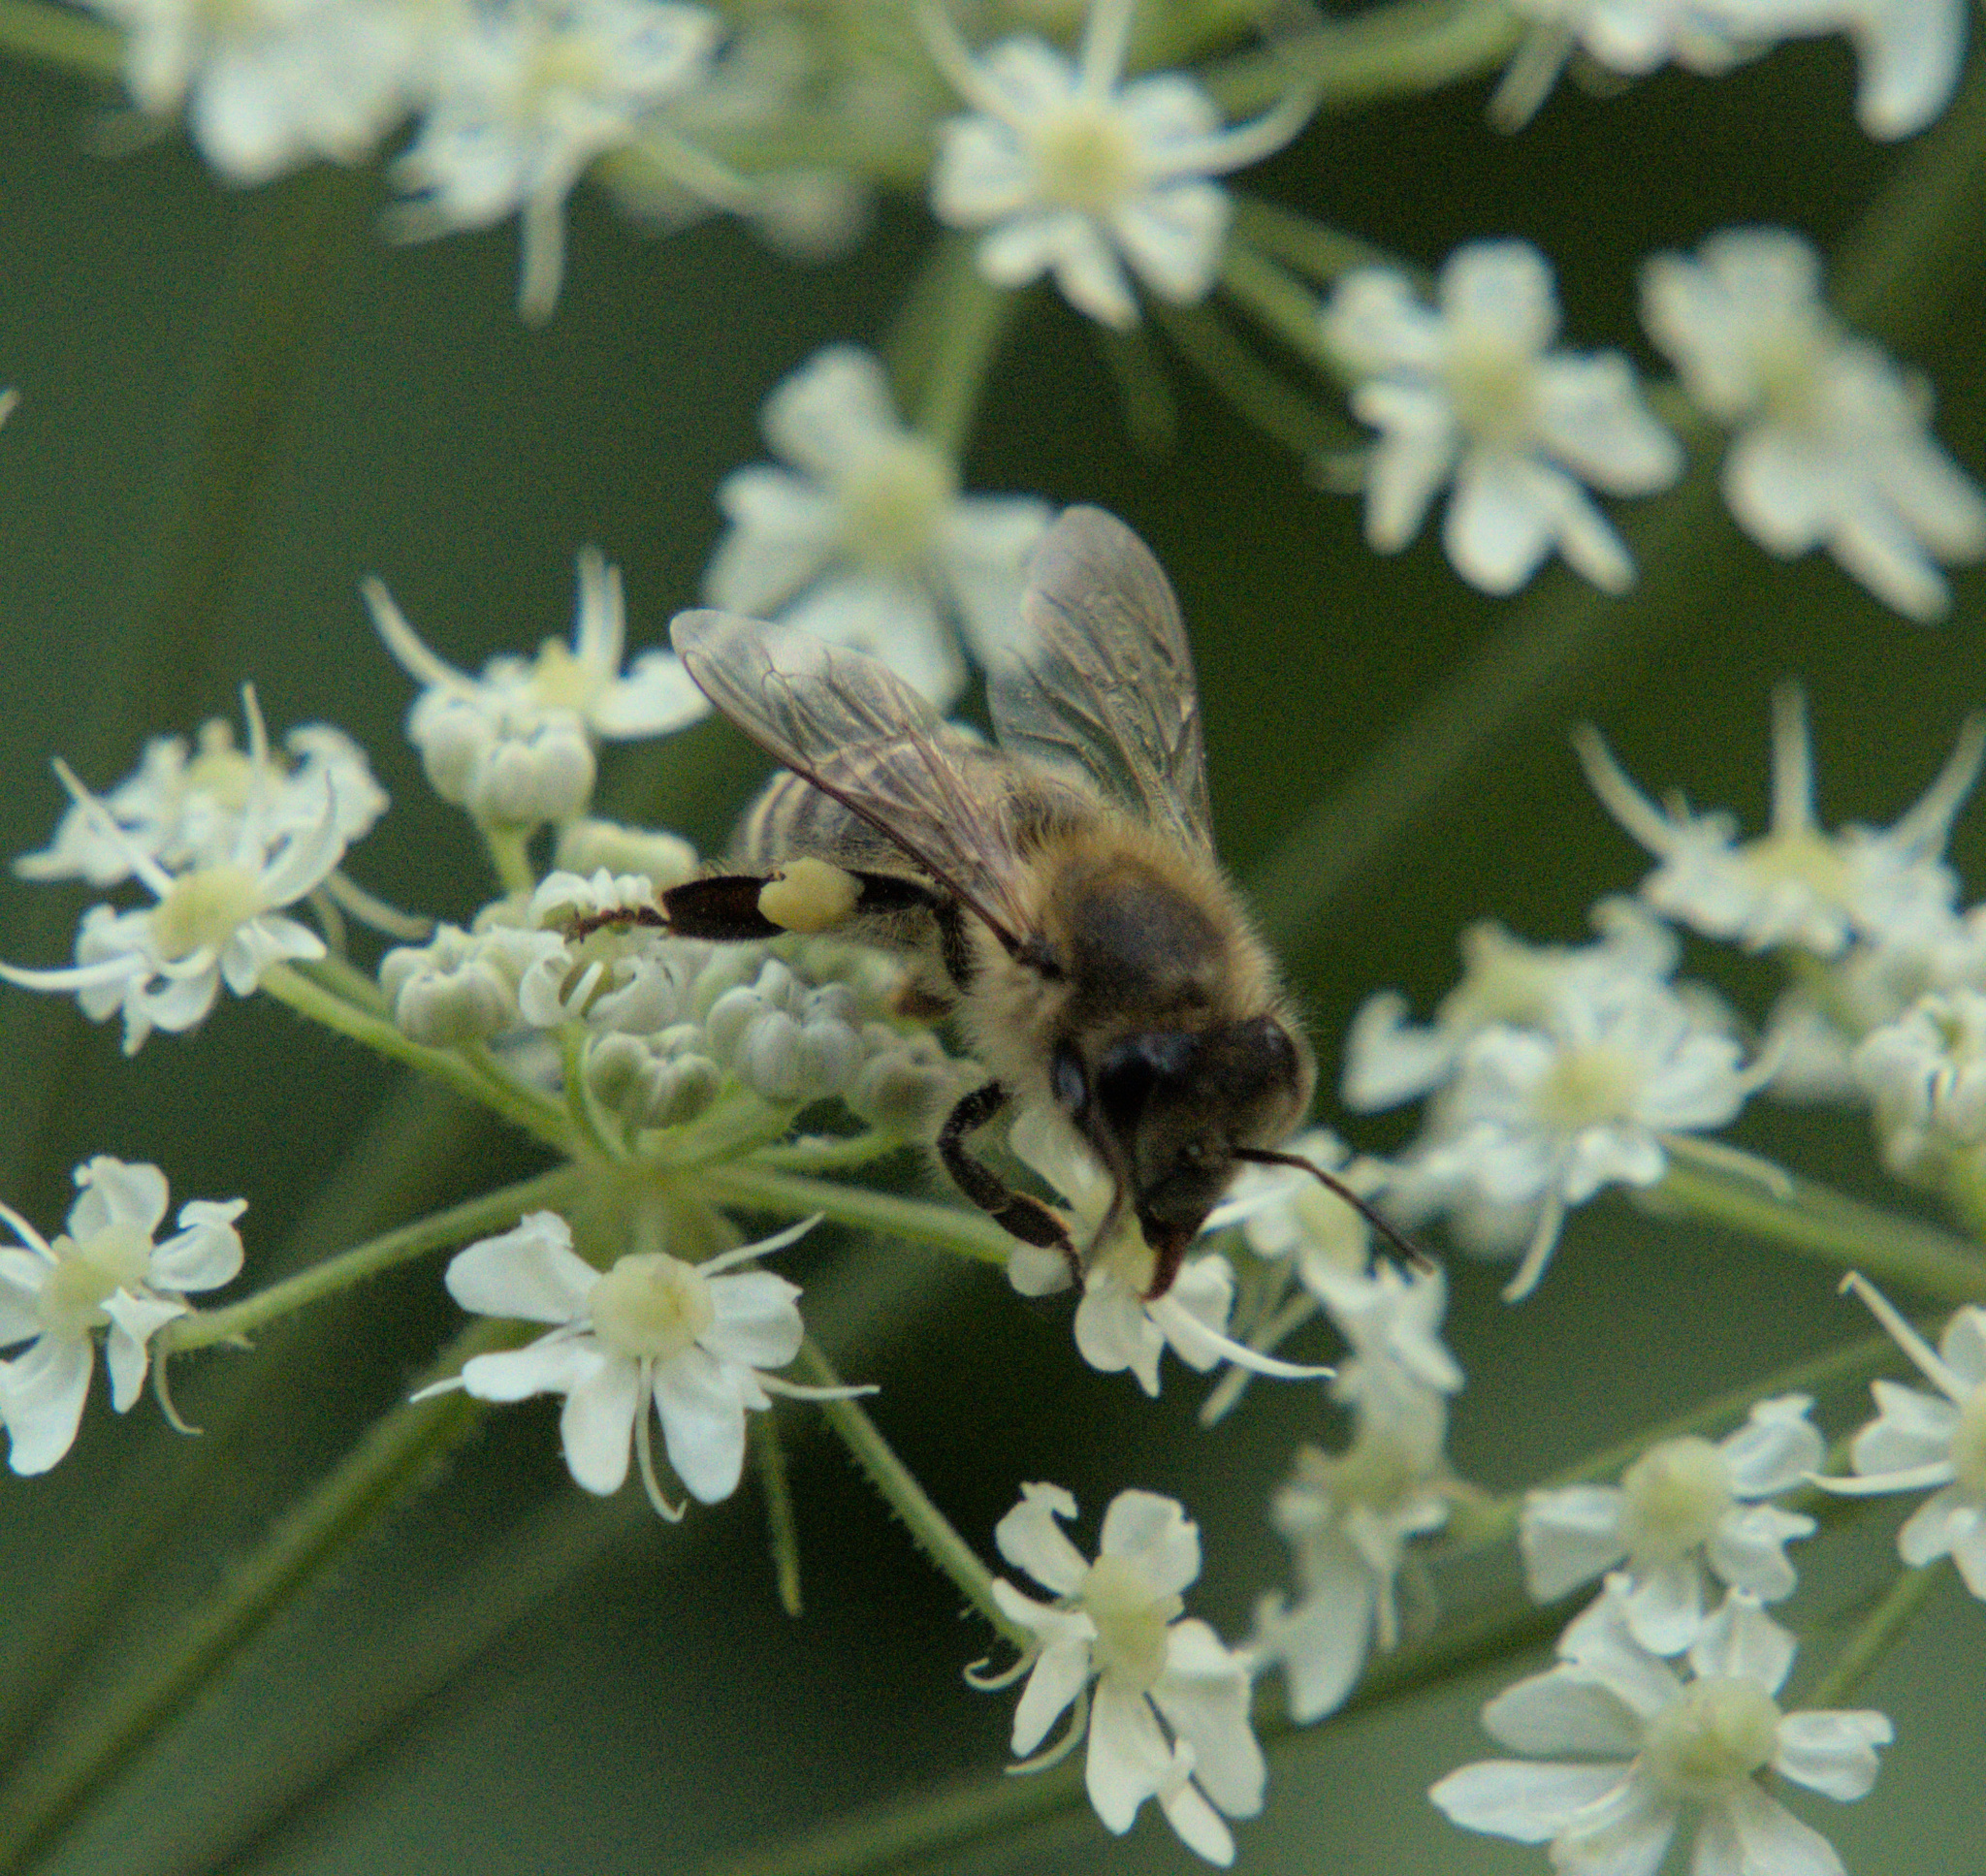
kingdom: Animalia
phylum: Arthropoda
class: Insecta
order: Hymenoptera
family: Apidae
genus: Apis
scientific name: Apis mellifera
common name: Honey bee
